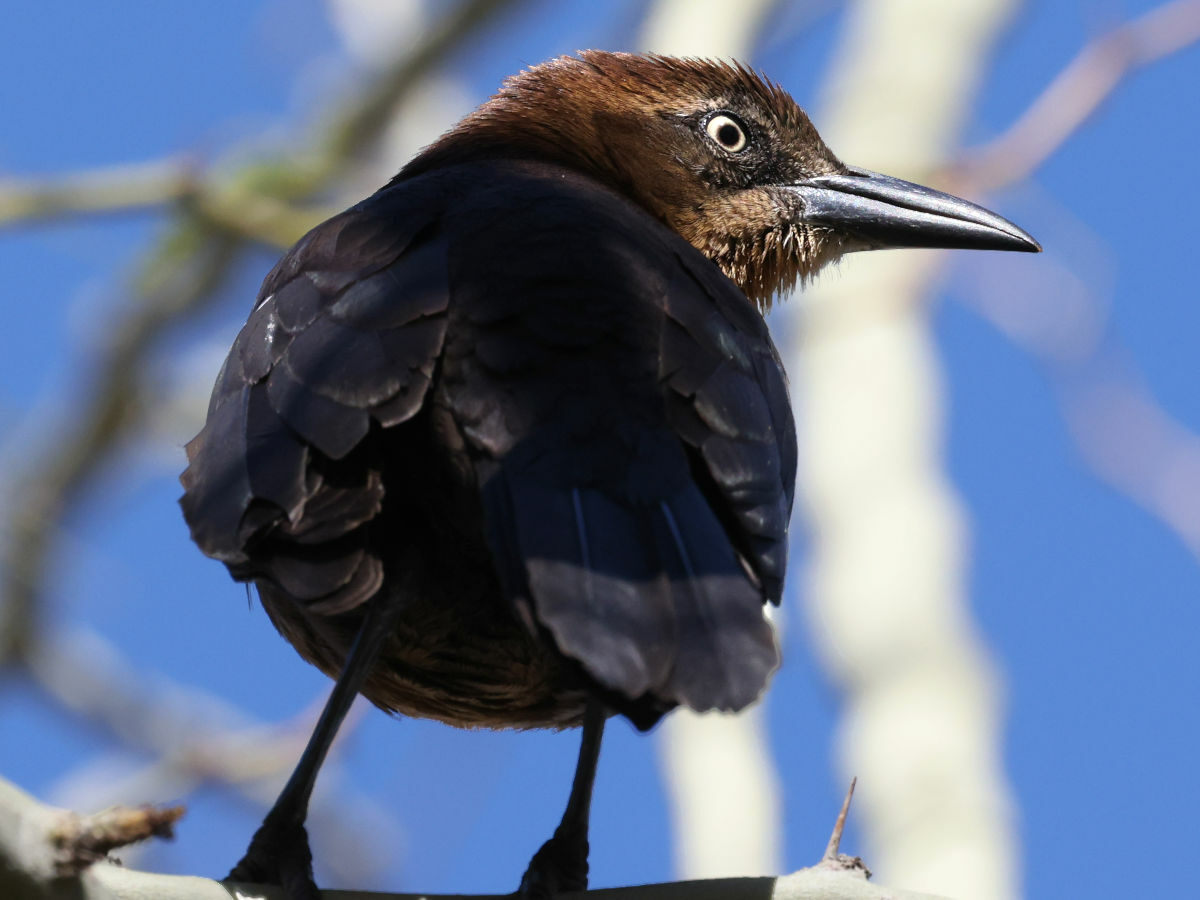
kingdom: Animalia
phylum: Chordata
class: Aves
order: Passeriformes
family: Icteridae
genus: Quiscalus
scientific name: Quiscalus mexicanus
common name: Great-tailed grackle
